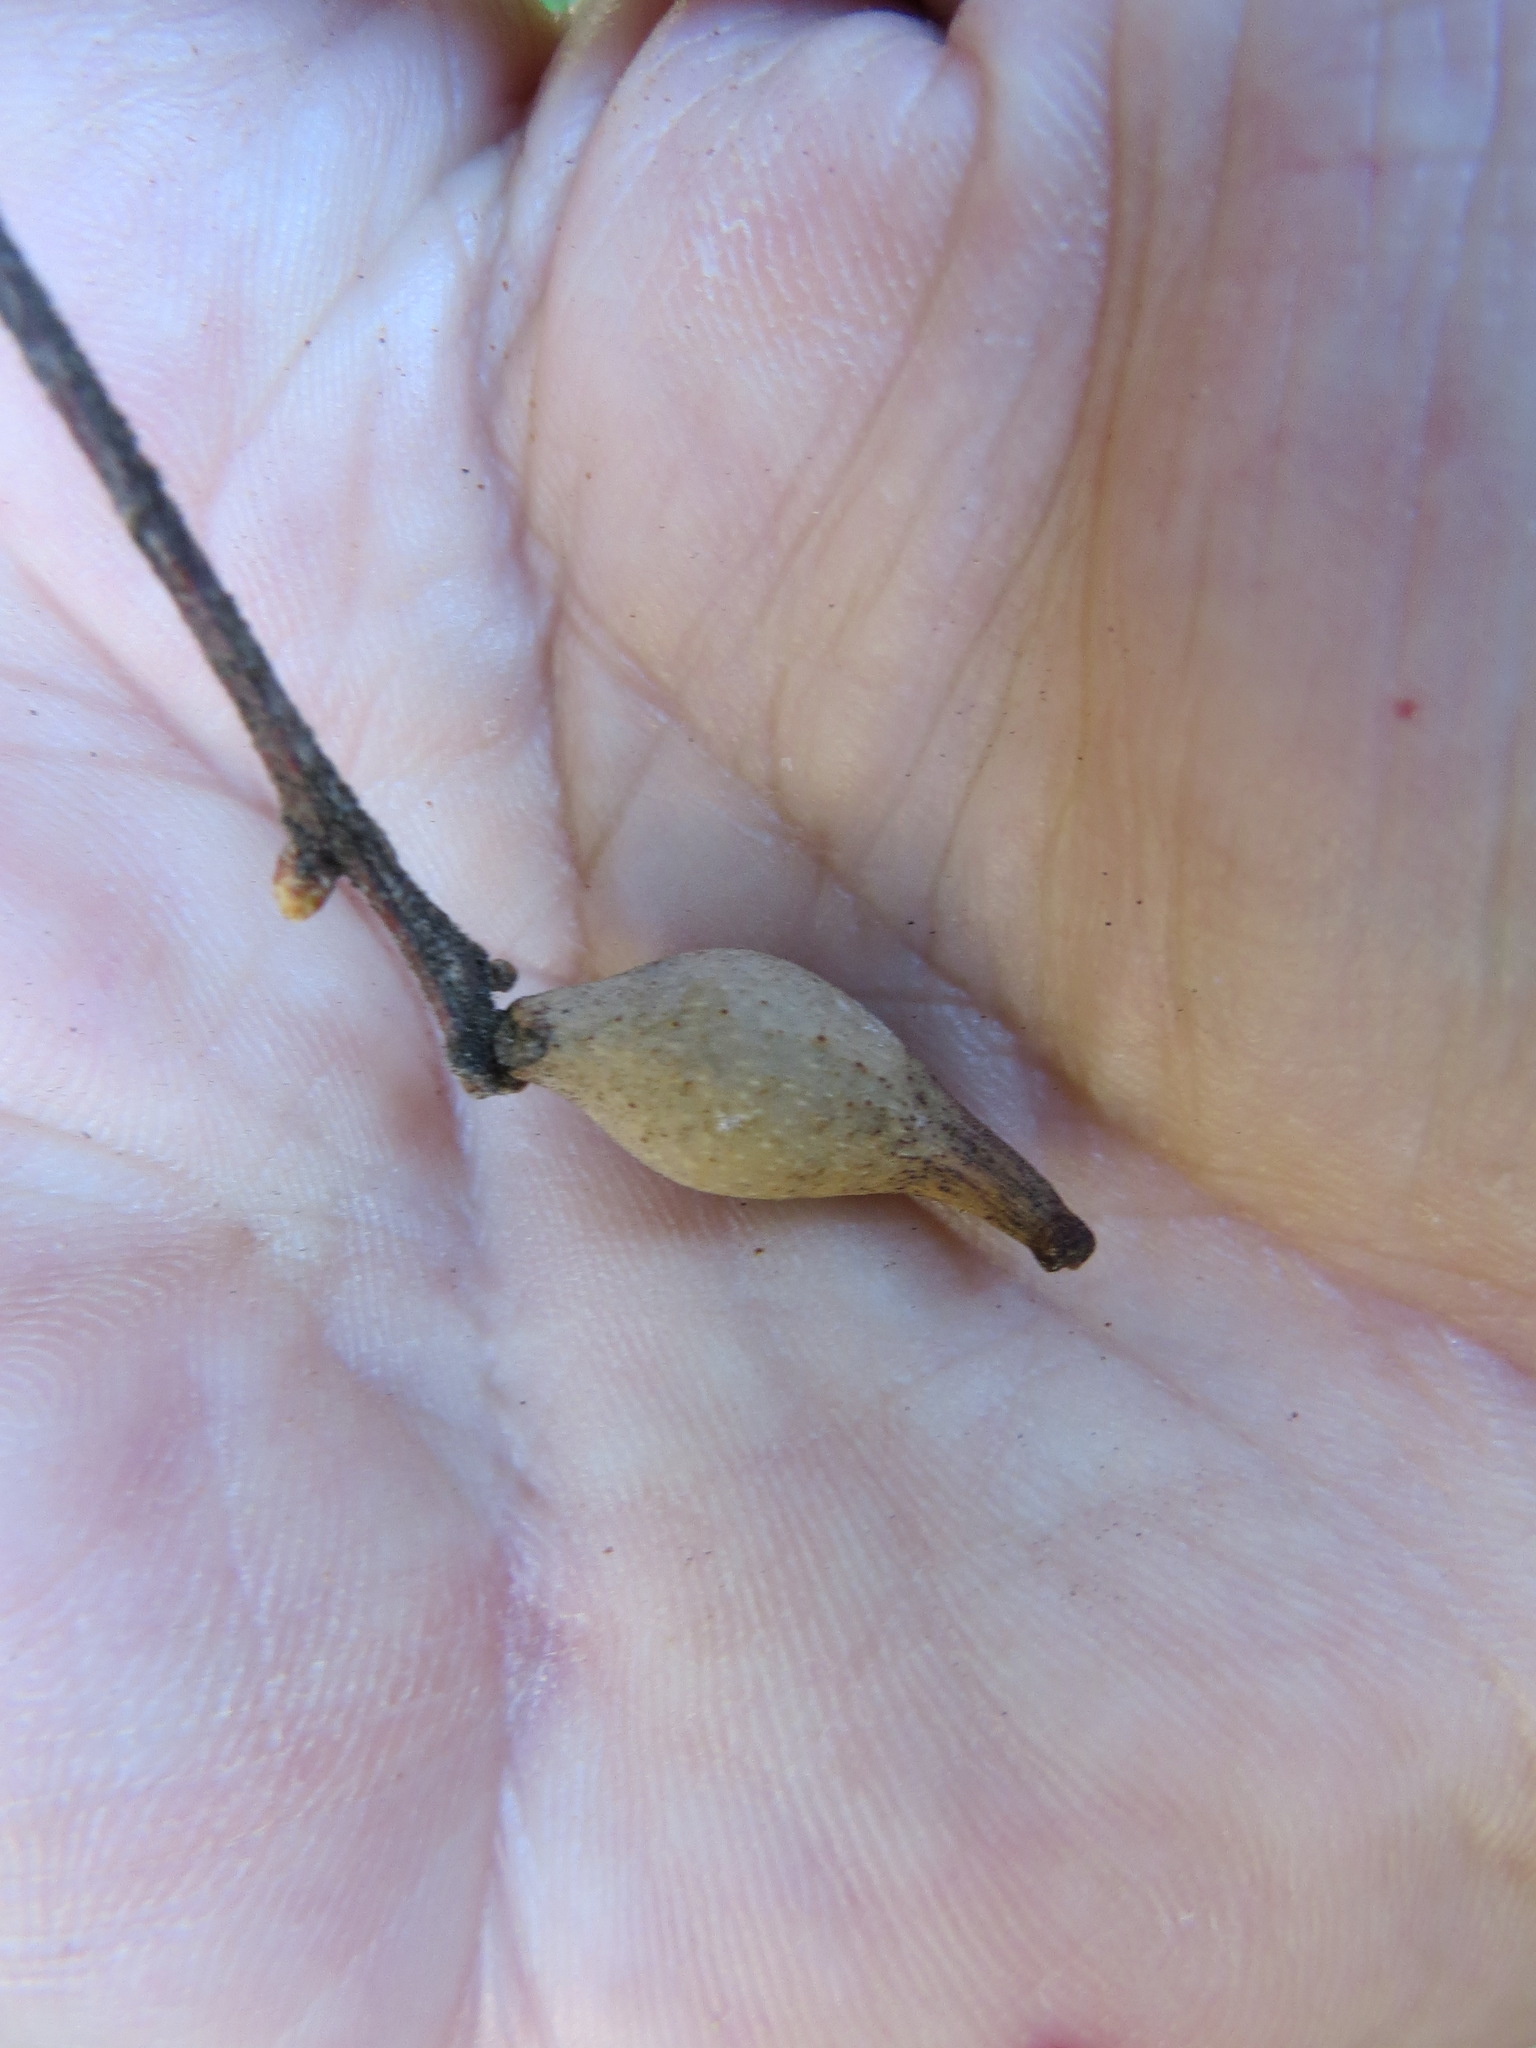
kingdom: Animalia
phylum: Arthropoda
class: Insecta
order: Hymenoptera
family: Cynipidae
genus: Heteroecus
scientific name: Heteroecus pacificus
